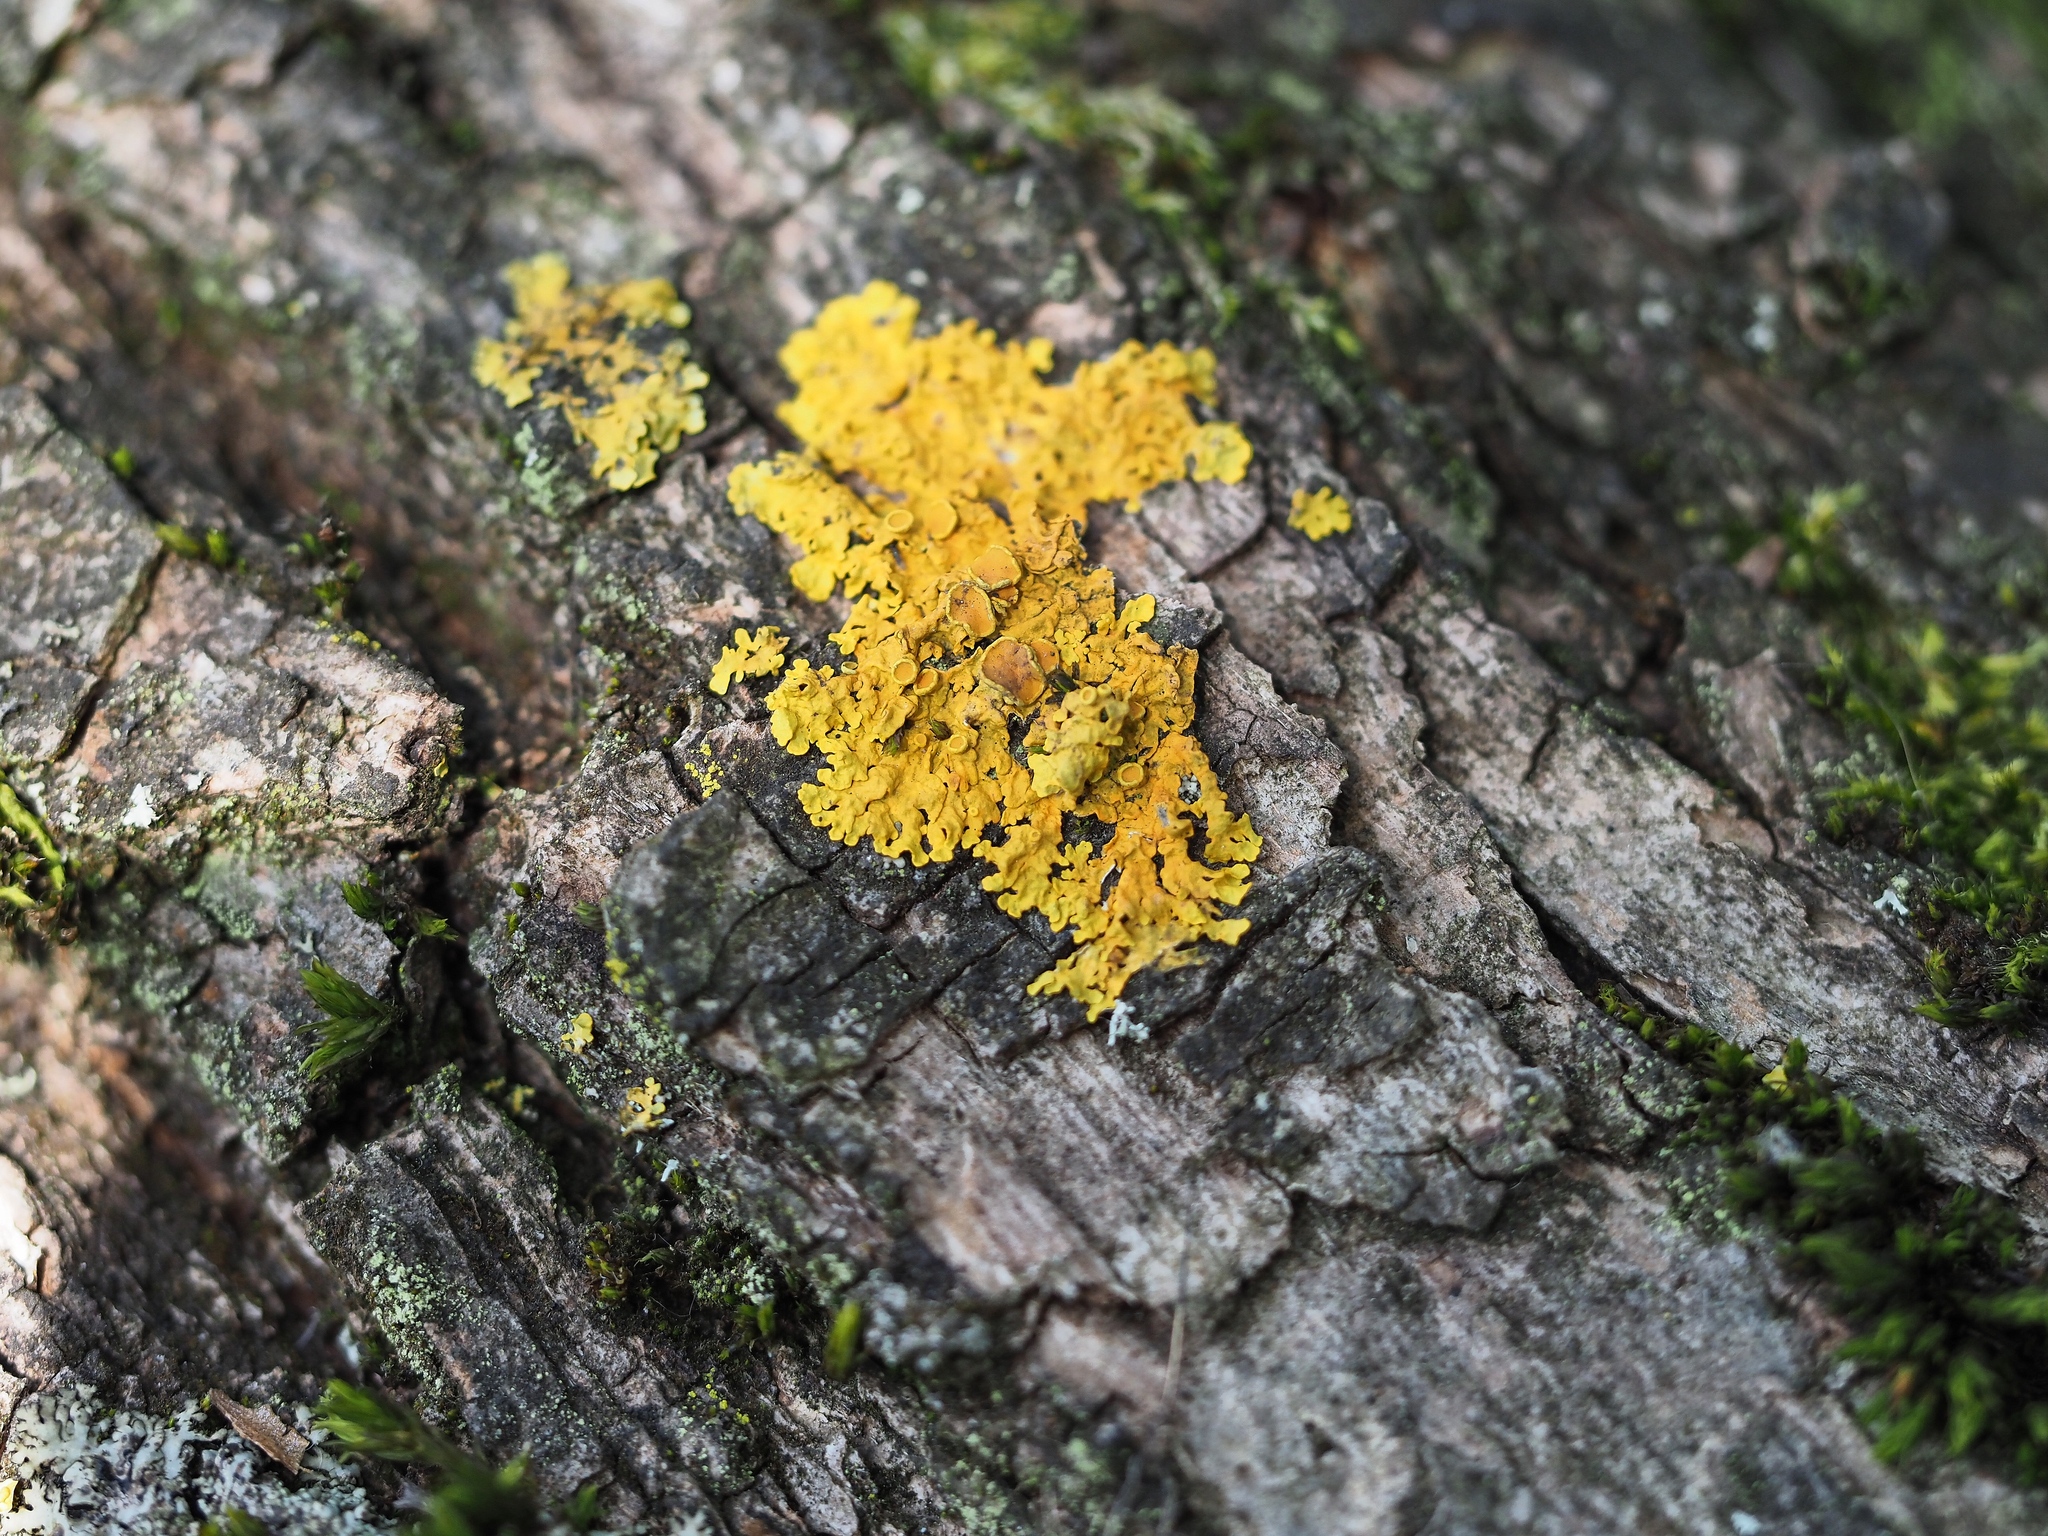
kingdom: Fungi
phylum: Ascomycota
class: Lecanoromycetes
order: Teloschistales
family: Teloschistaceae
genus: Xanthoria
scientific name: Xanthoria parietina
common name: Common orange lichen
